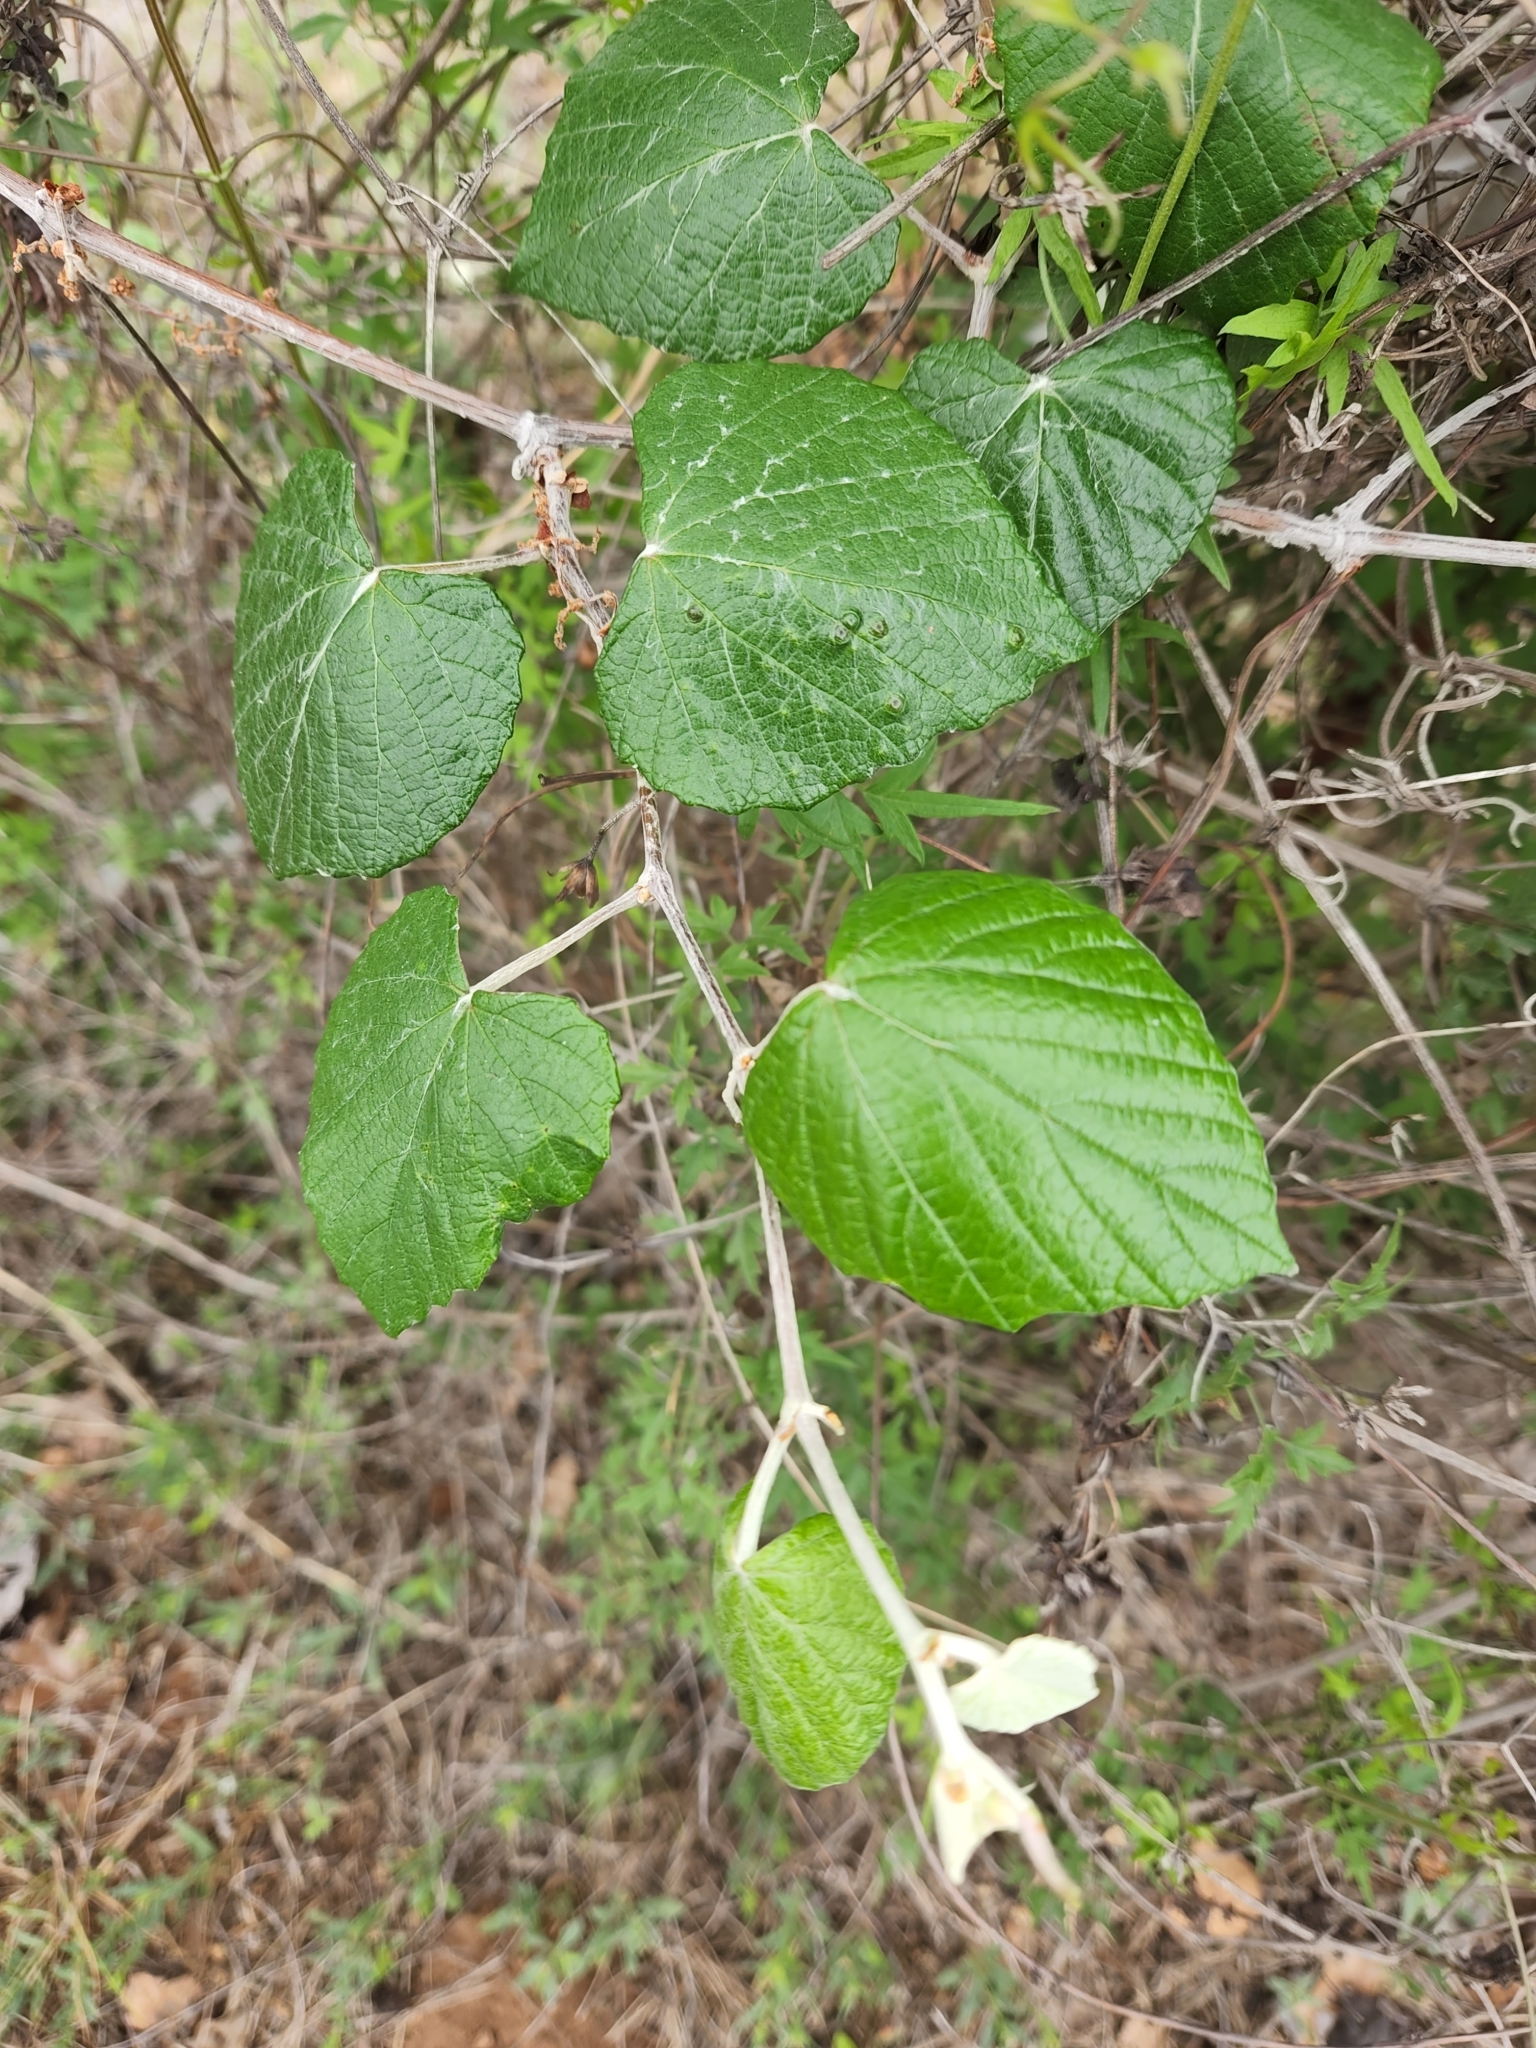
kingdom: Plantae
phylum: Tracheophyta
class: Magnoliopsida
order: Vitales
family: Vitaceae
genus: Vitis
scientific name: Vitis mustangensis
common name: Mustang grape
